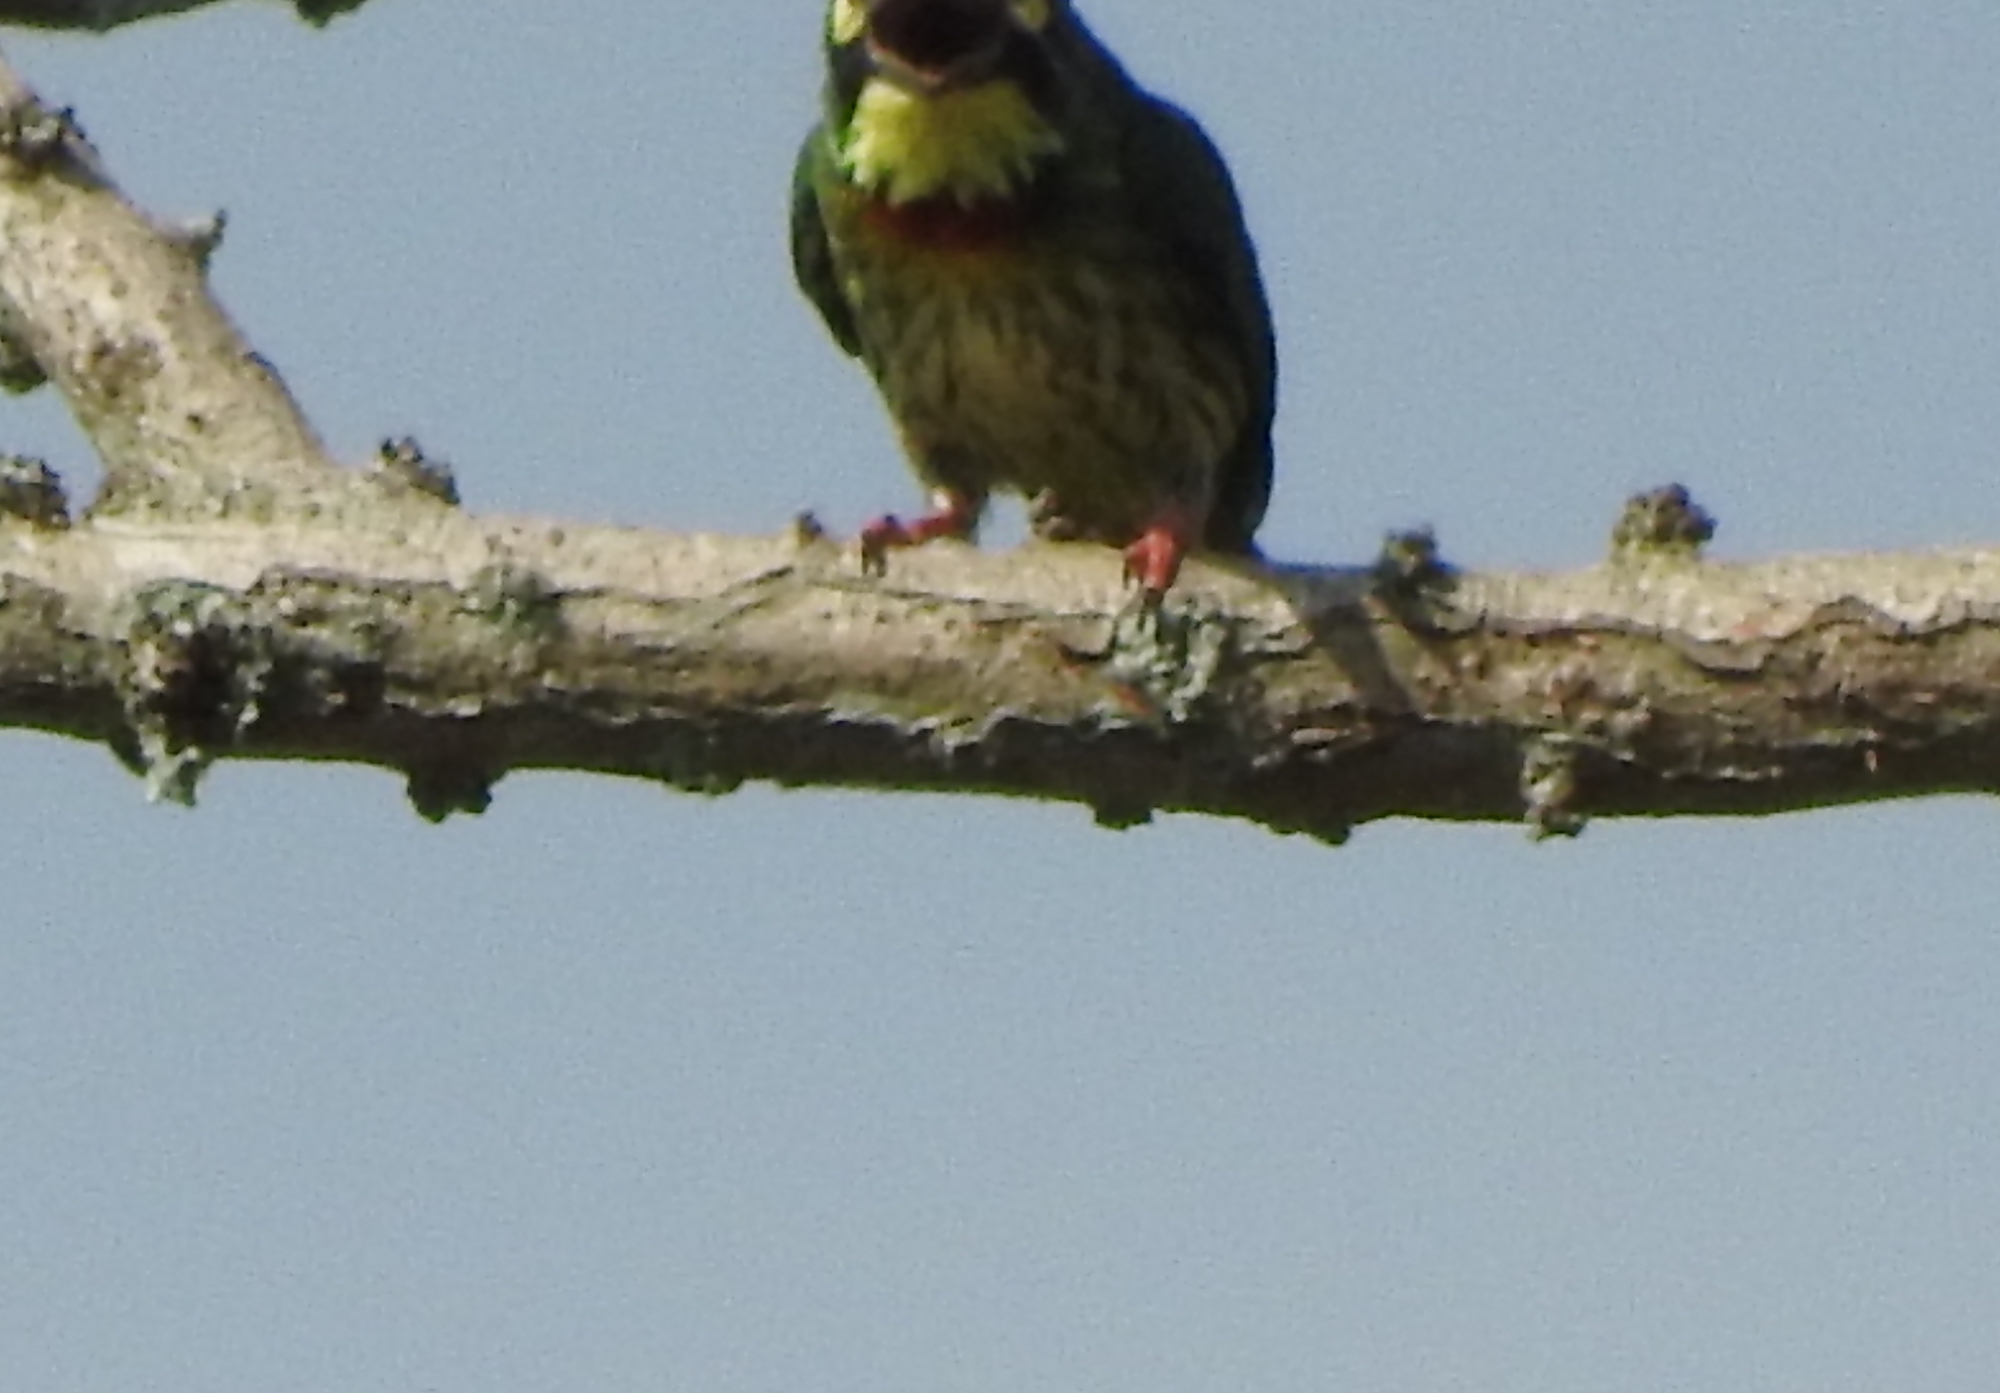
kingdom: Animalia
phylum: Chordata
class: Aves
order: Piciformes
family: Megalaimidae
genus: Psilopogon
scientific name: Psilopogon haemacephalus
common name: Coppersmith barbet
